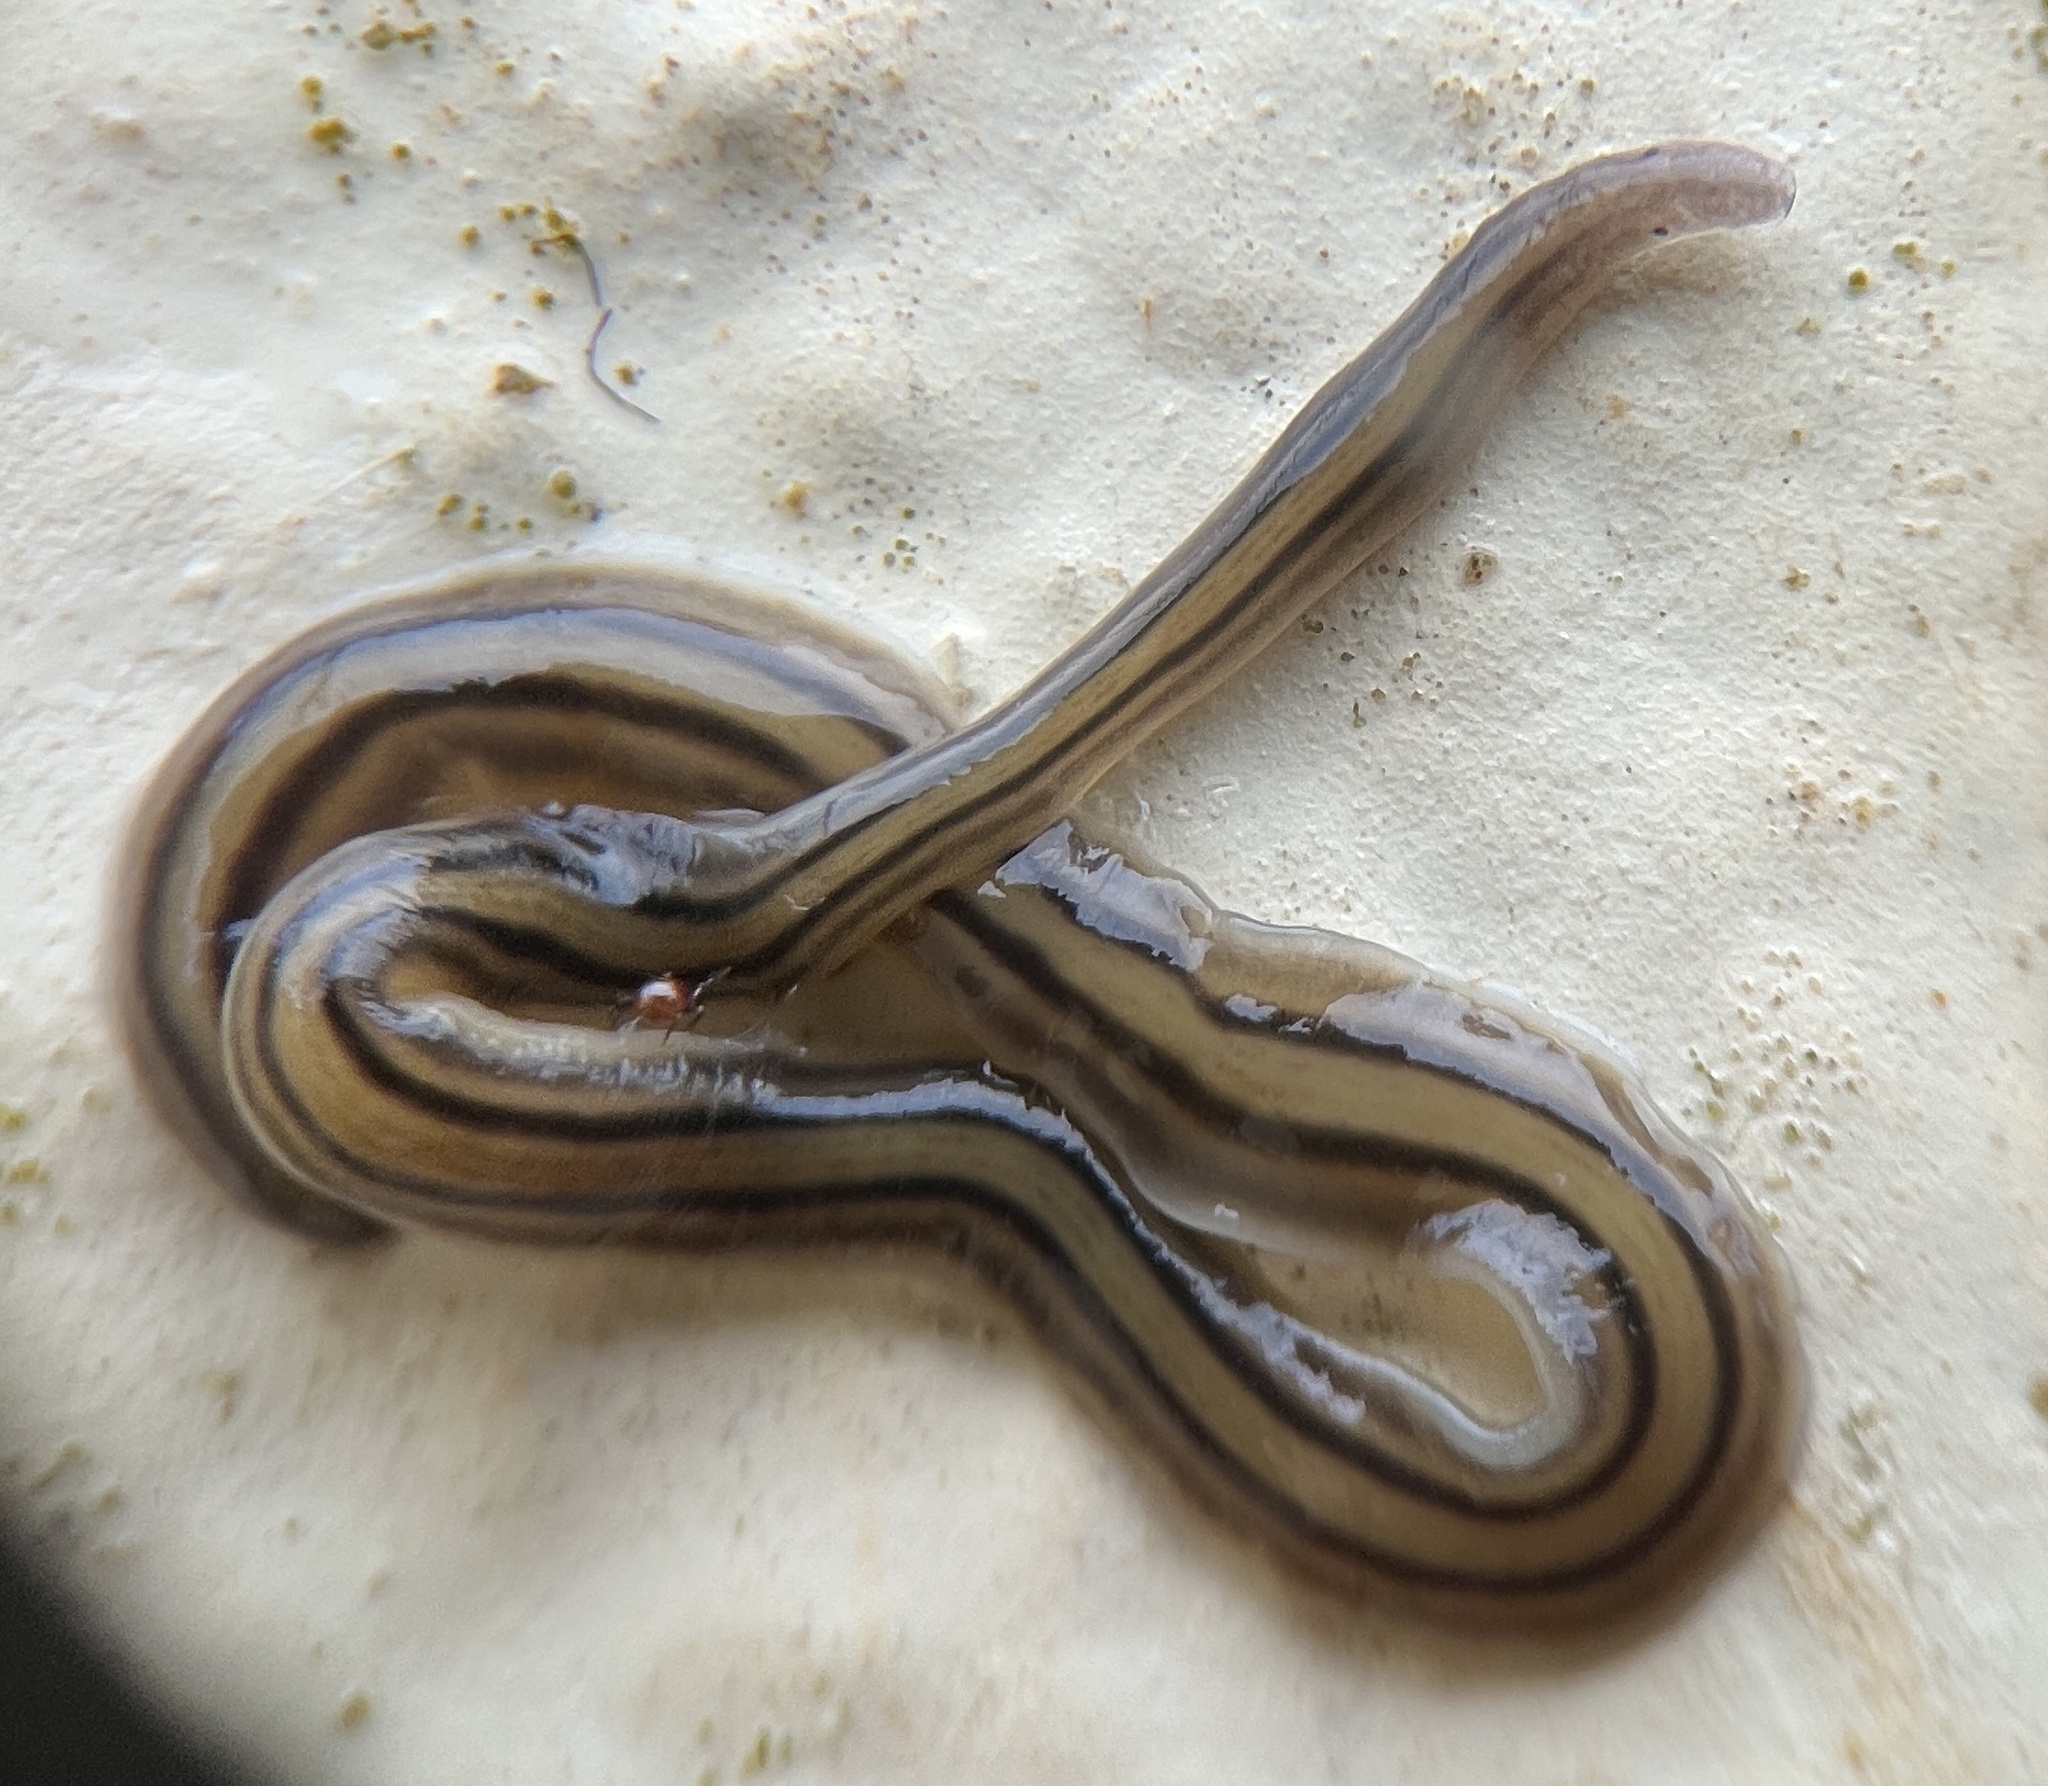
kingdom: Animalia
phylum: Platyhelminthes
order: Tricladida
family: Geoplanidae
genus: Dolichoplana
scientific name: Dolichoplana striata
